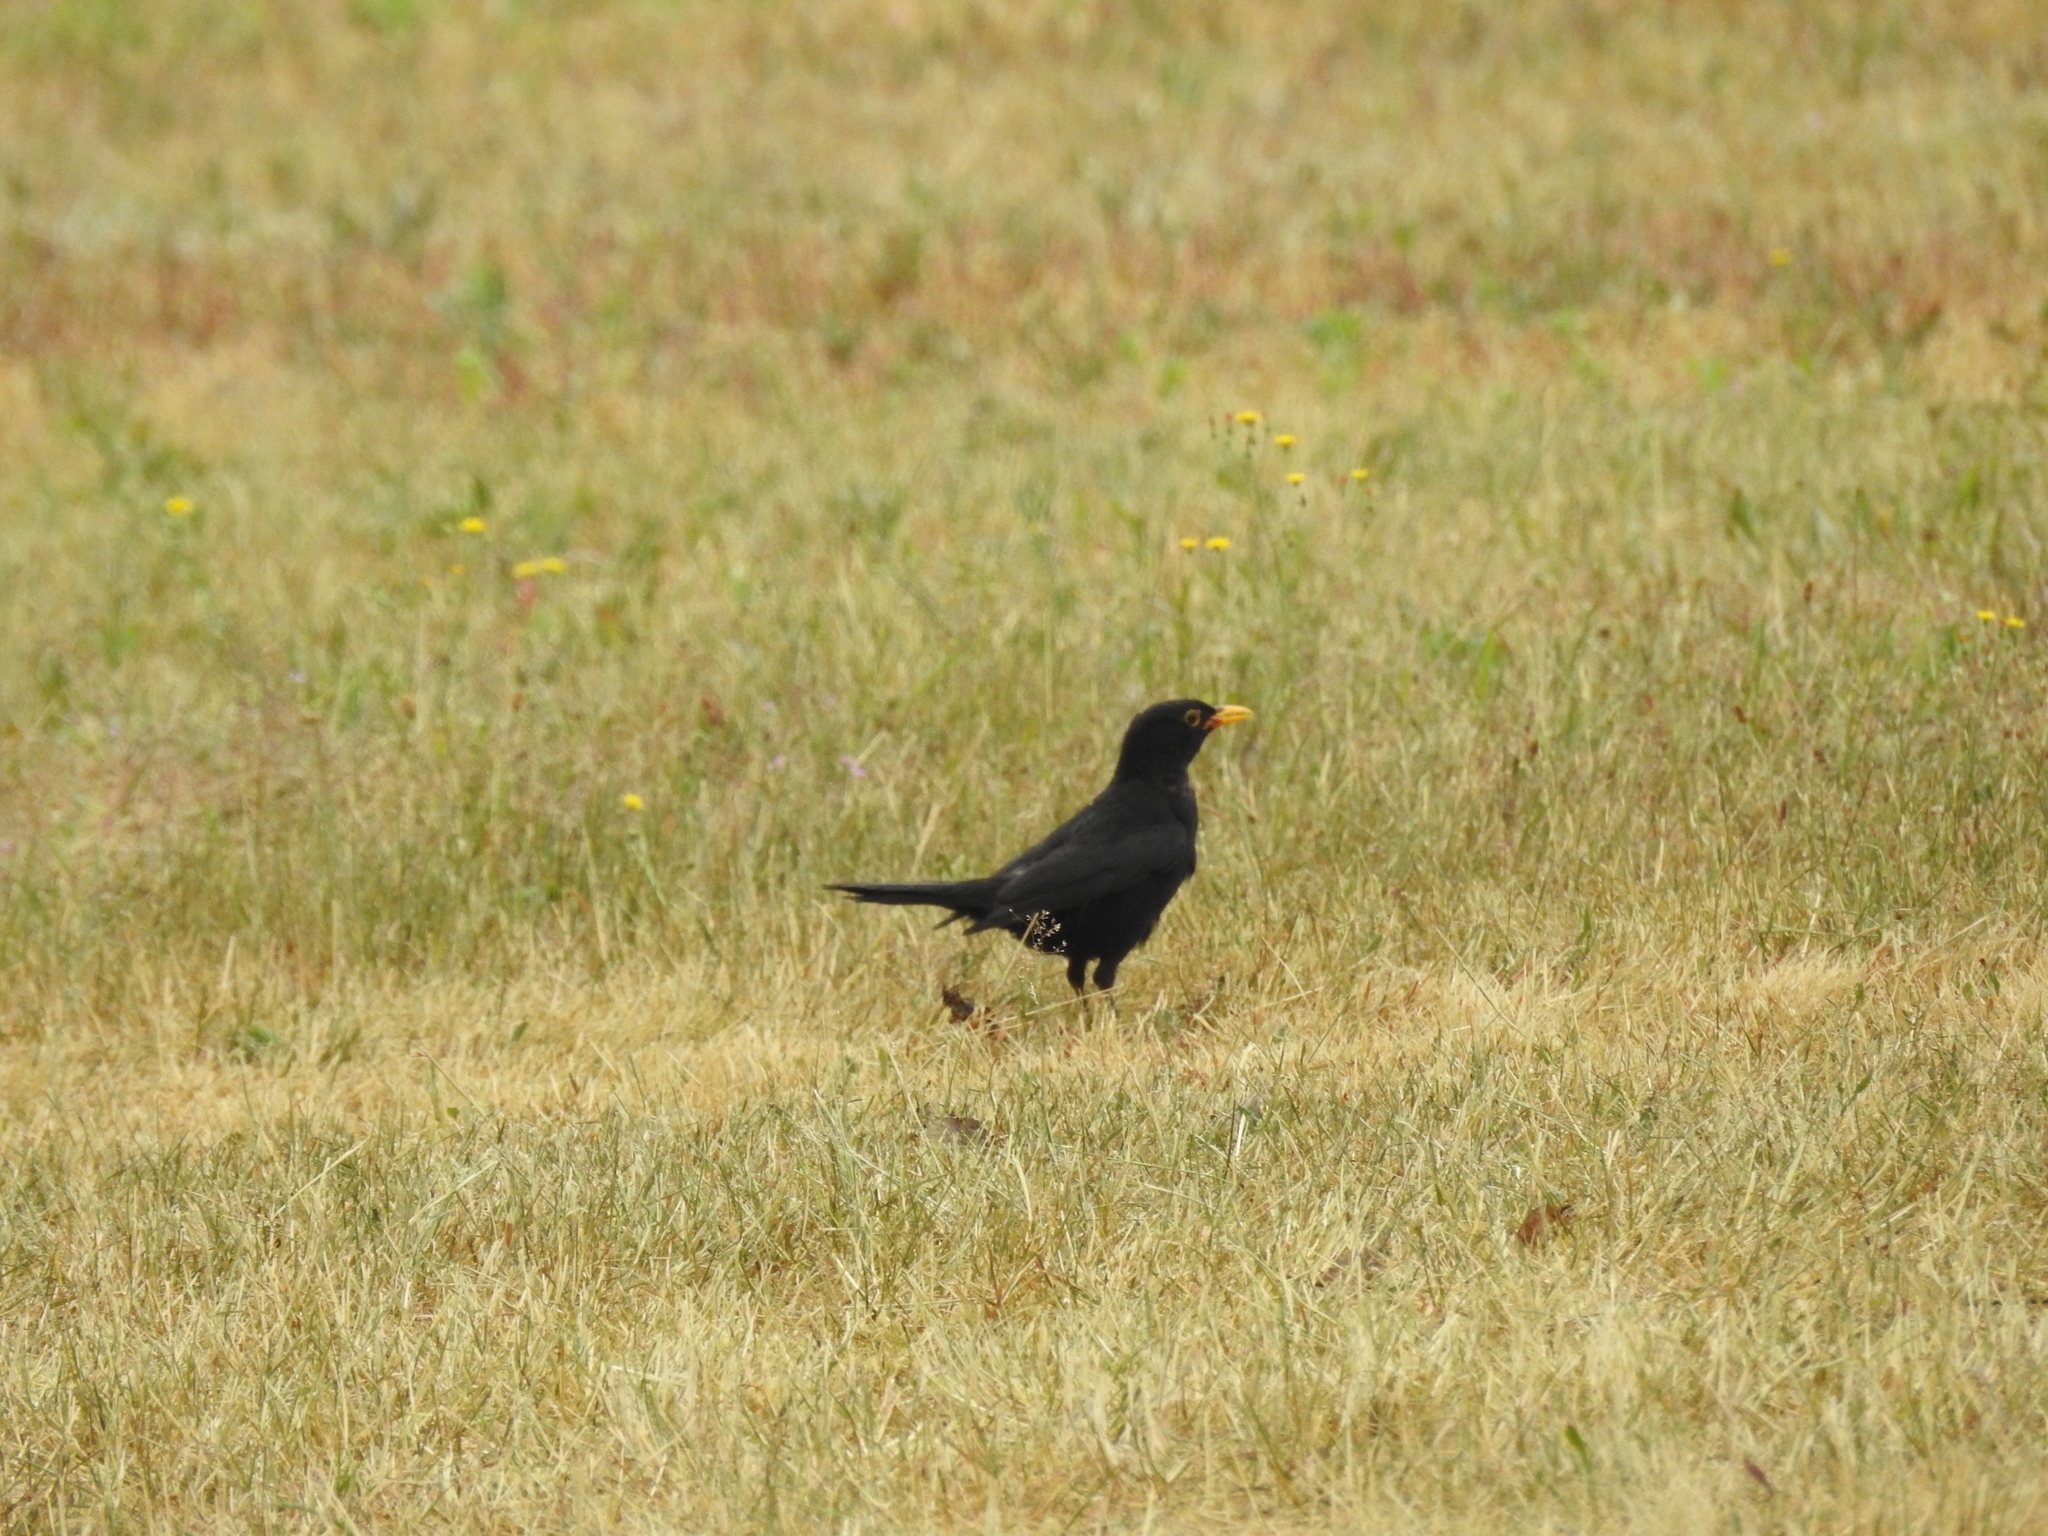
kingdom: Animalia
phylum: Chordata
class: Aves
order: Passeriformes
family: Turdidae
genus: Turdus
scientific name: Turdus merula
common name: Common blackbird
